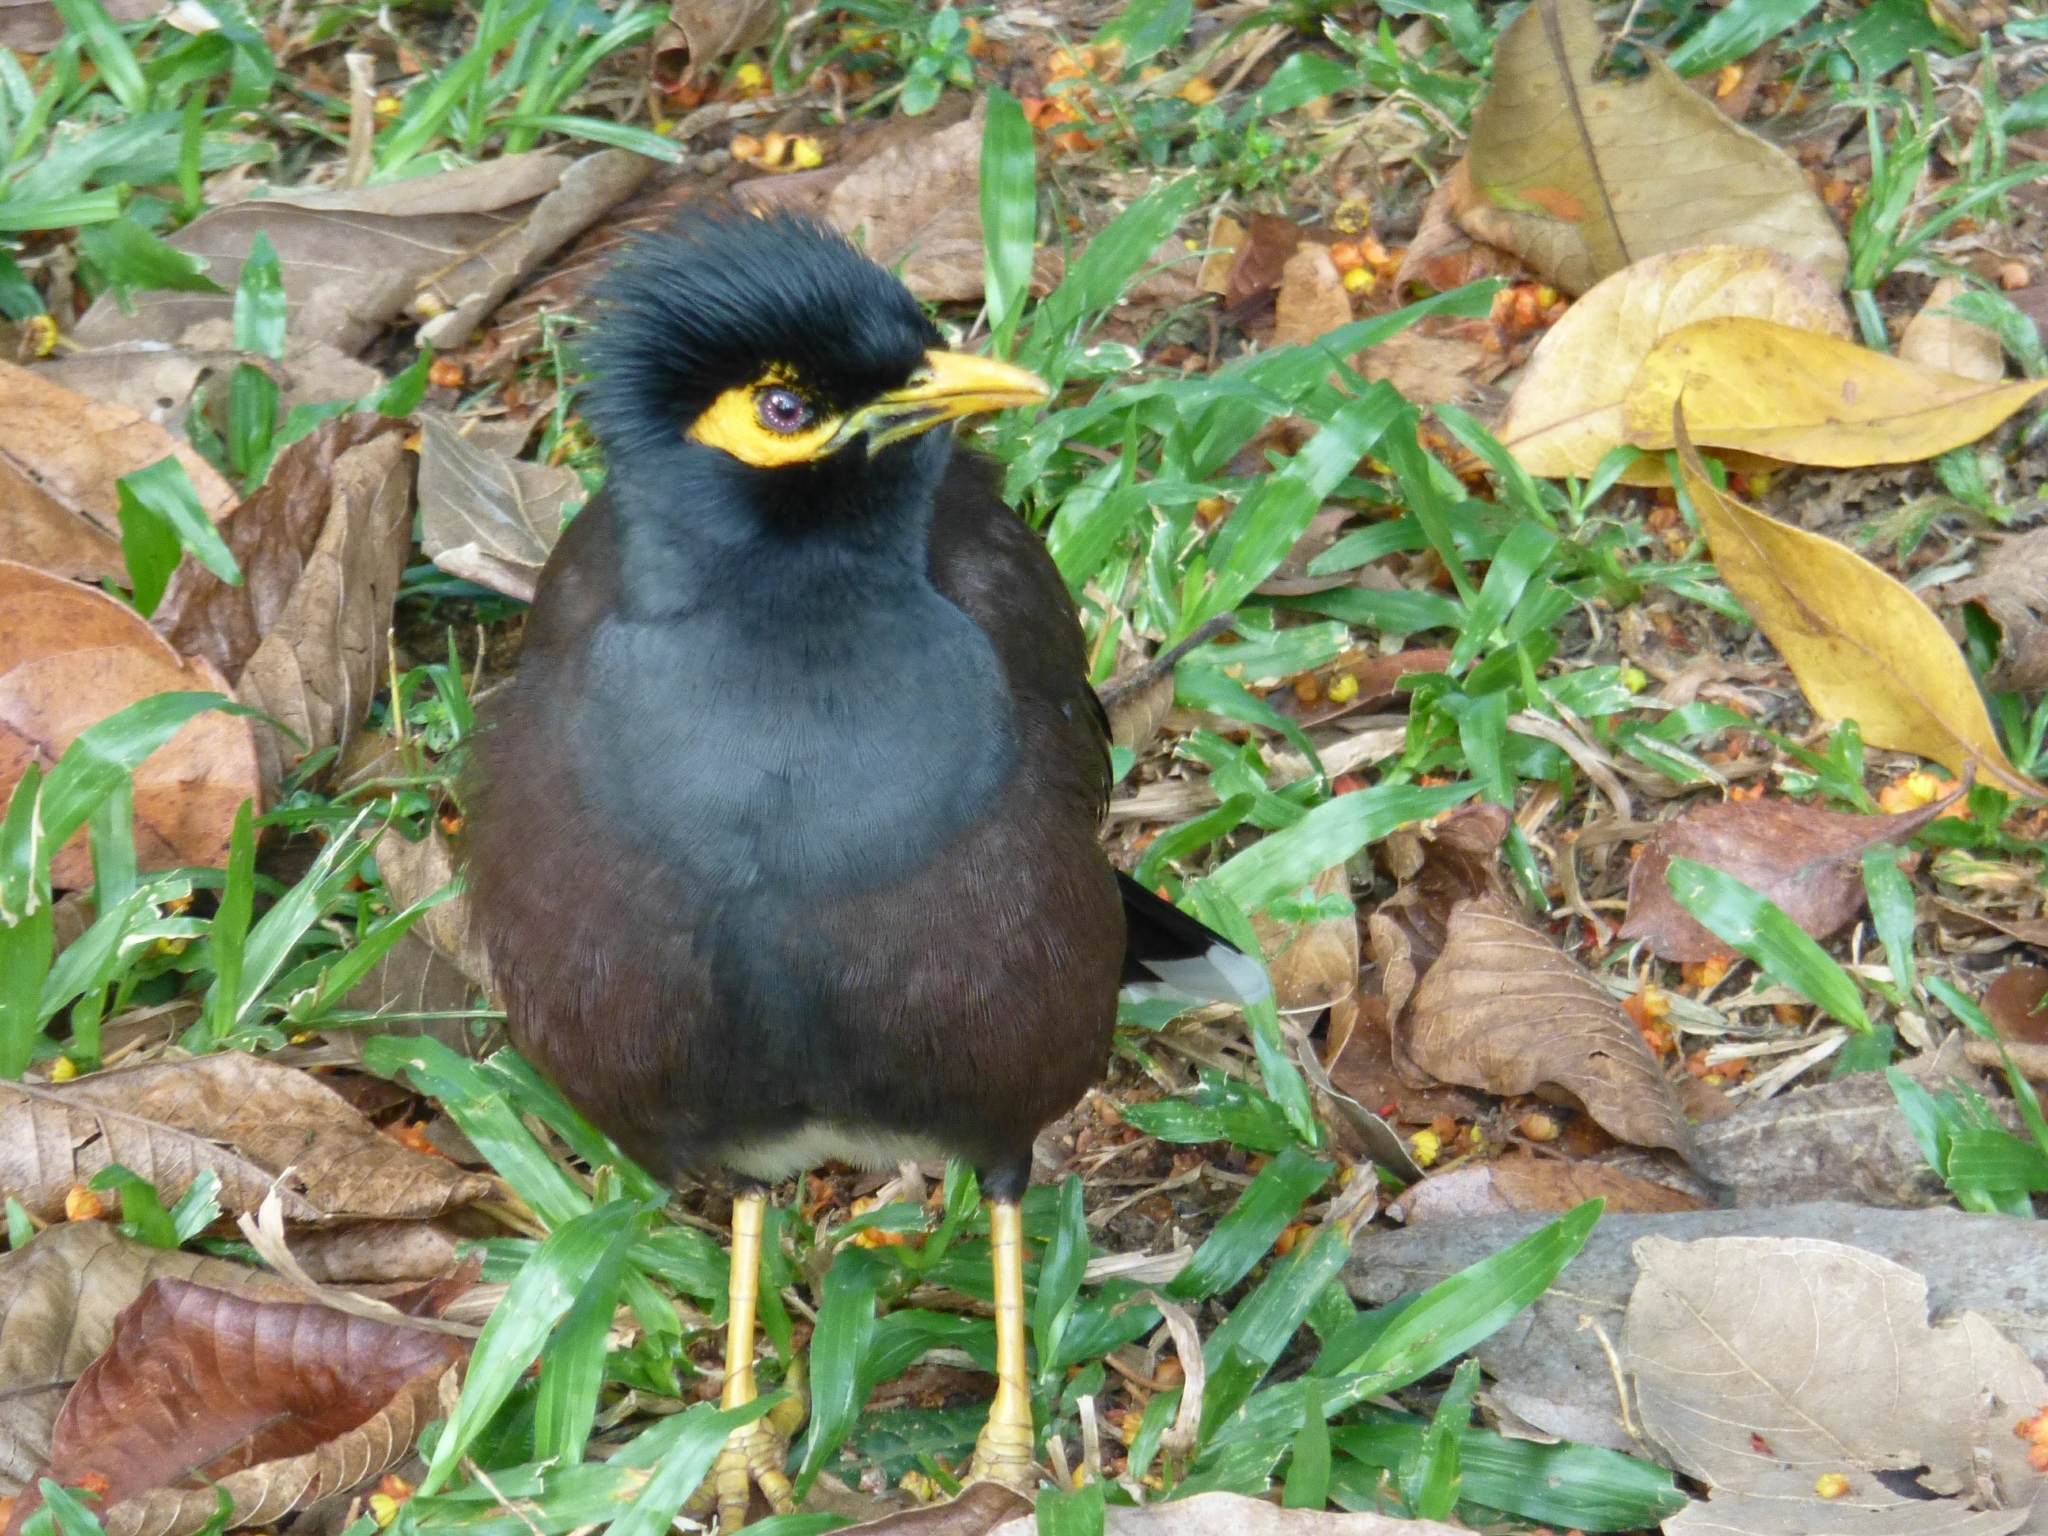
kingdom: Animalia
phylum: Chordata
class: Aves
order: Passeriformes
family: Sturnidae
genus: Acridotheres
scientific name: Acridotheres tristis
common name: Common myna
